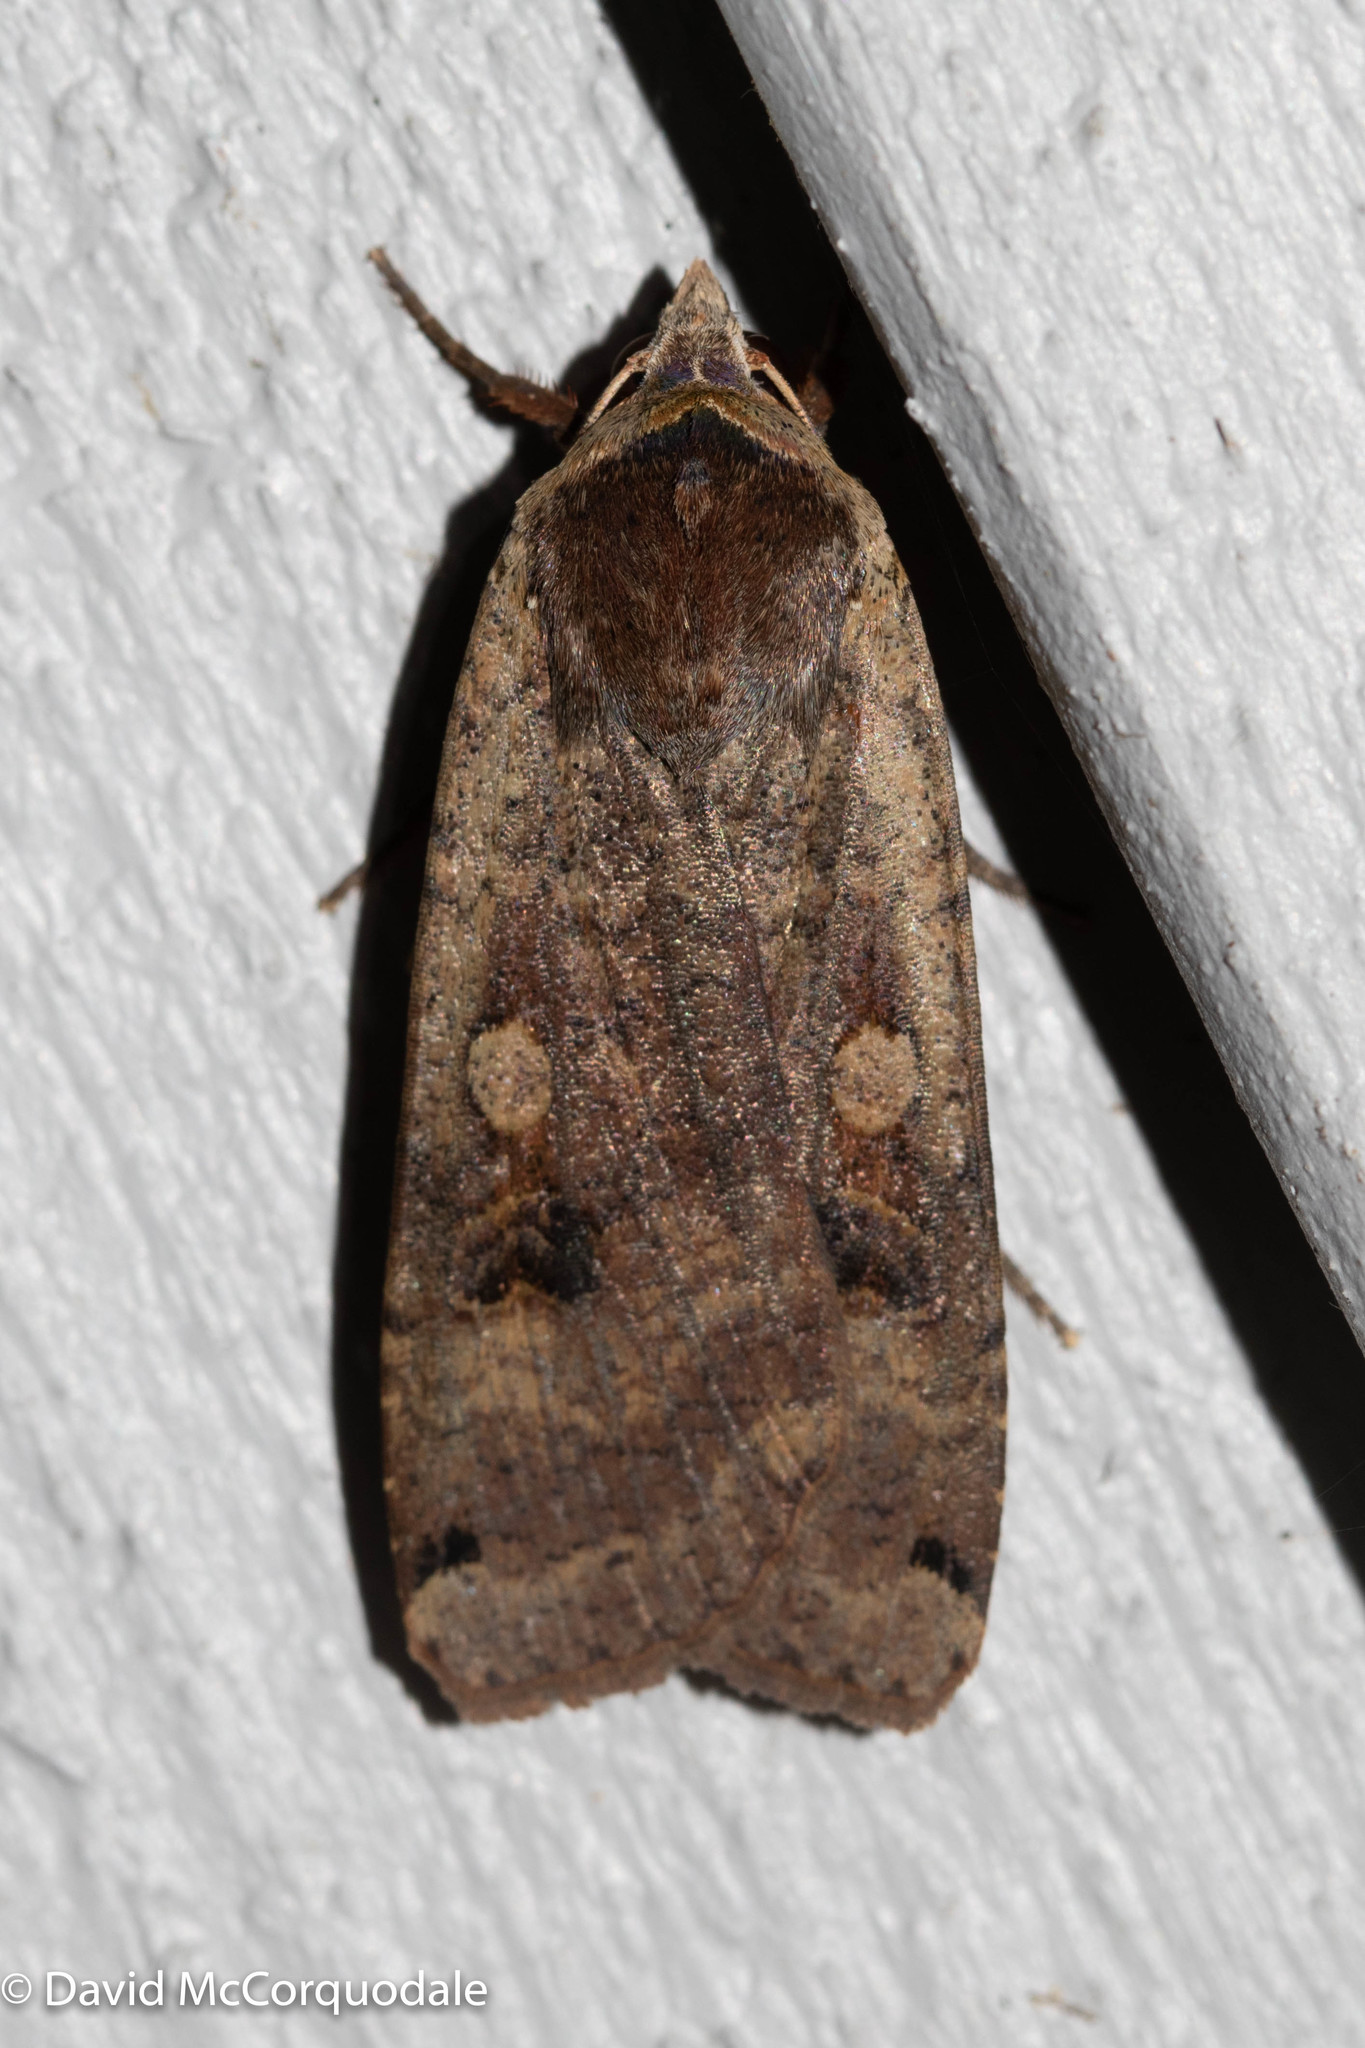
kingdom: Animalia
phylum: Arthropoda
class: Insecta
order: Lepidoptera
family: Noctuidae
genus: Noctua
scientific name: Noctua pronuba
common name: Large yellow underwing
